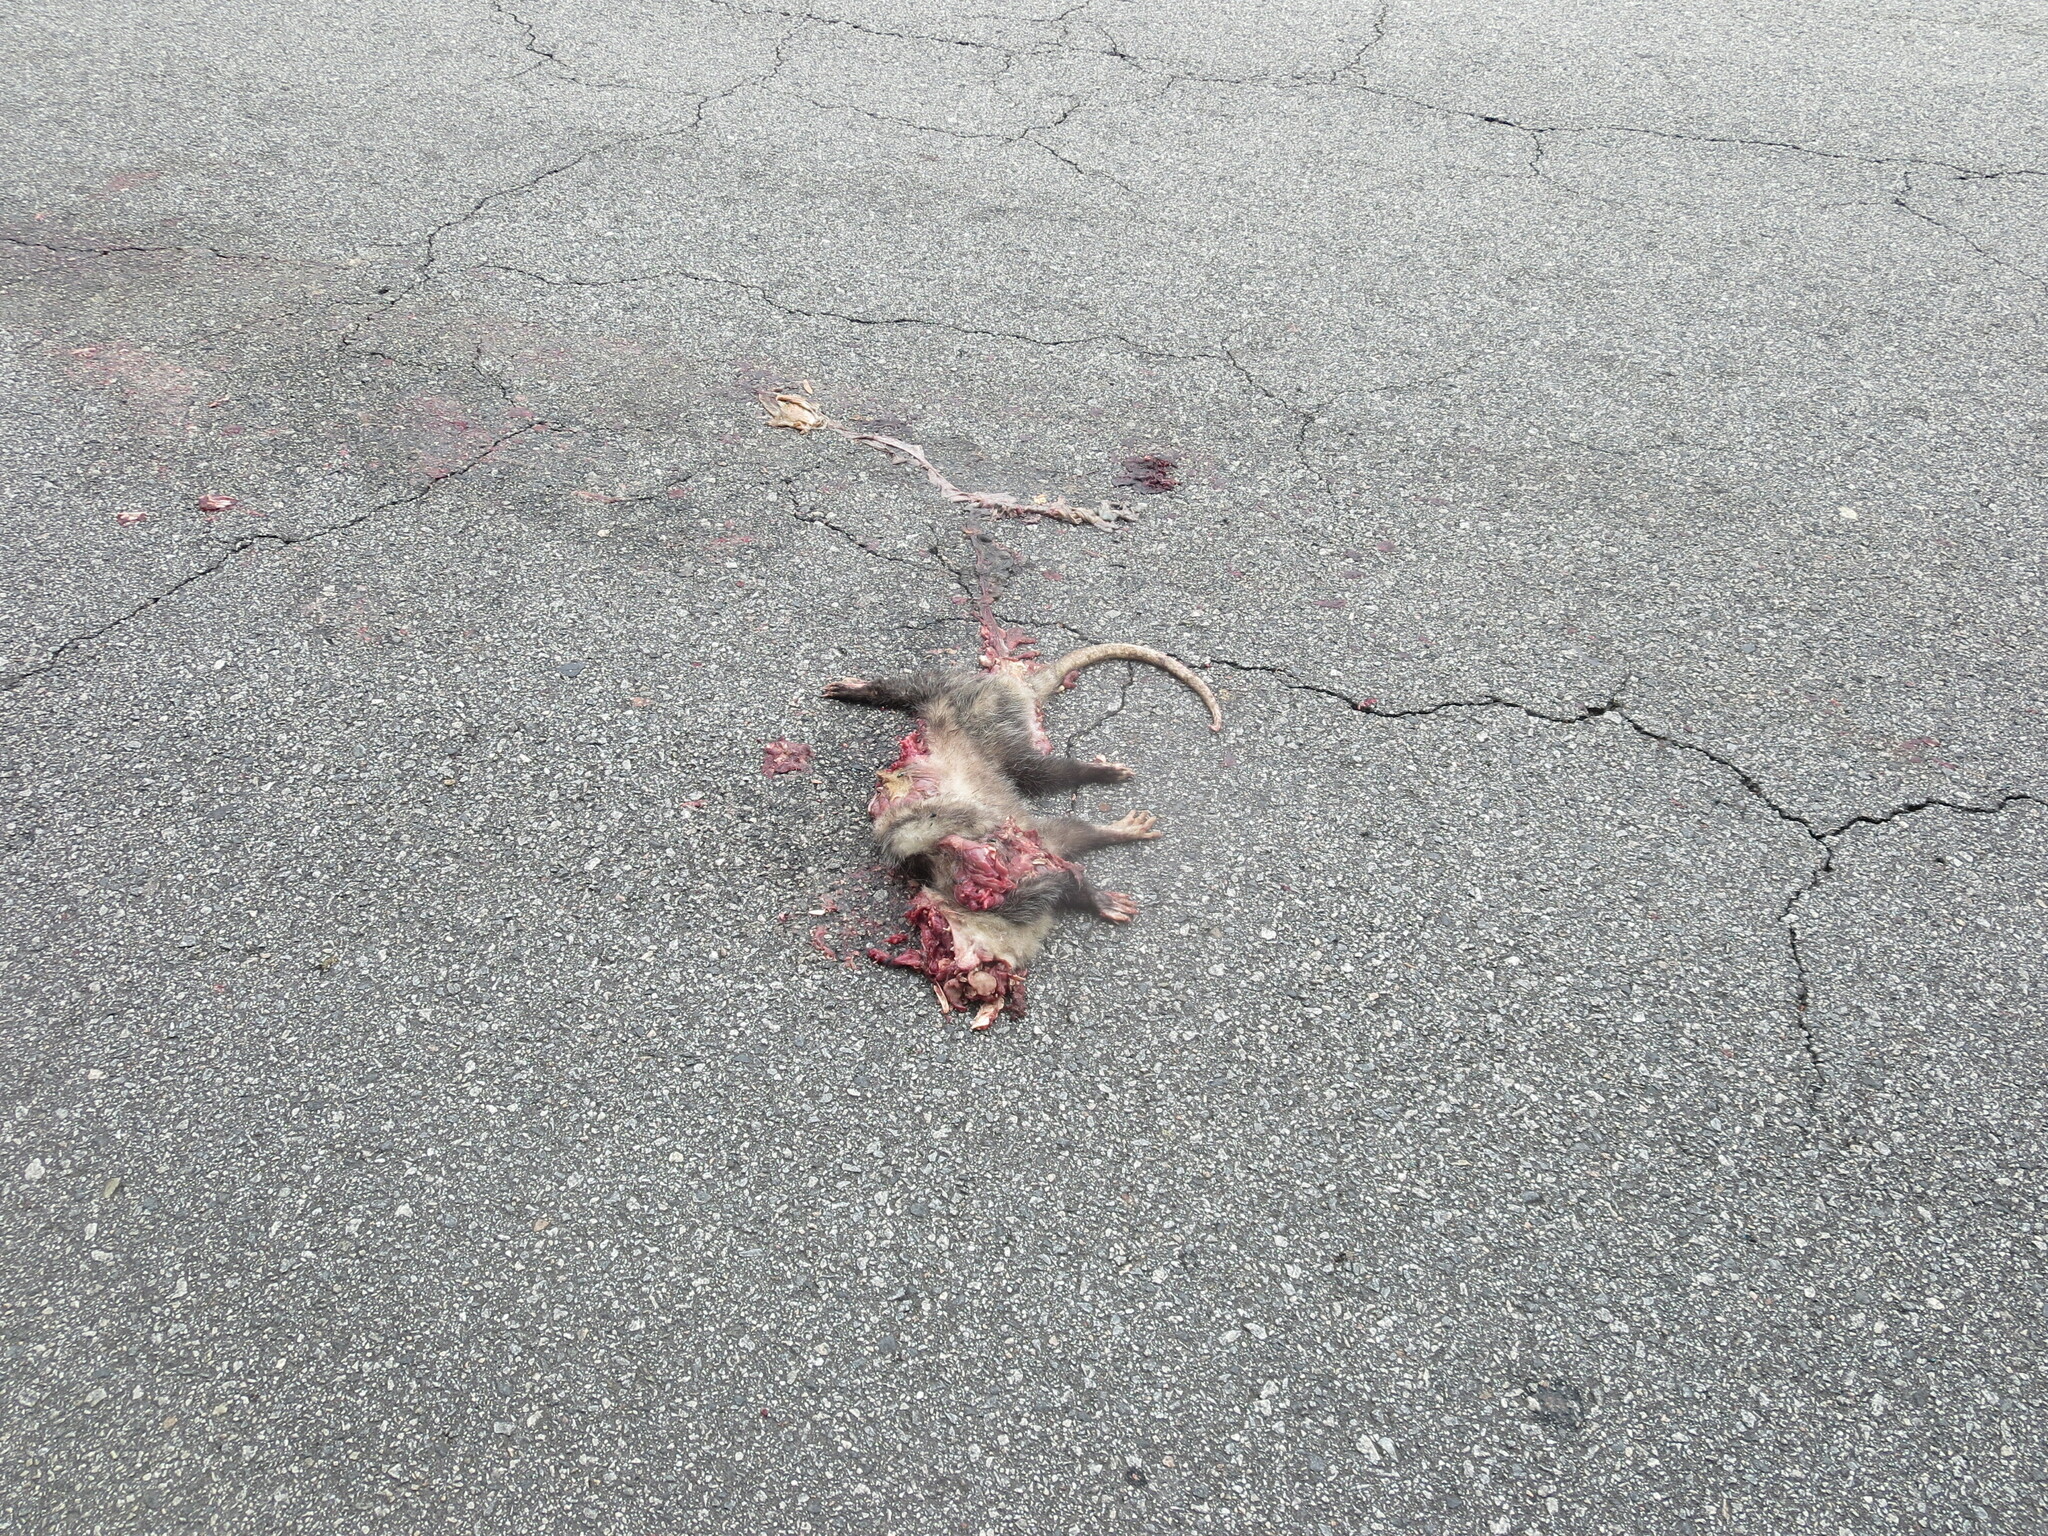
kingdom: Animalia
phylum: Chordata
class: Mammalia
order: Didelphimorphia
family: Didelphidae
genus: Didelphis
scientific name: Didelphis virginiana
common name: Virginia opossum
